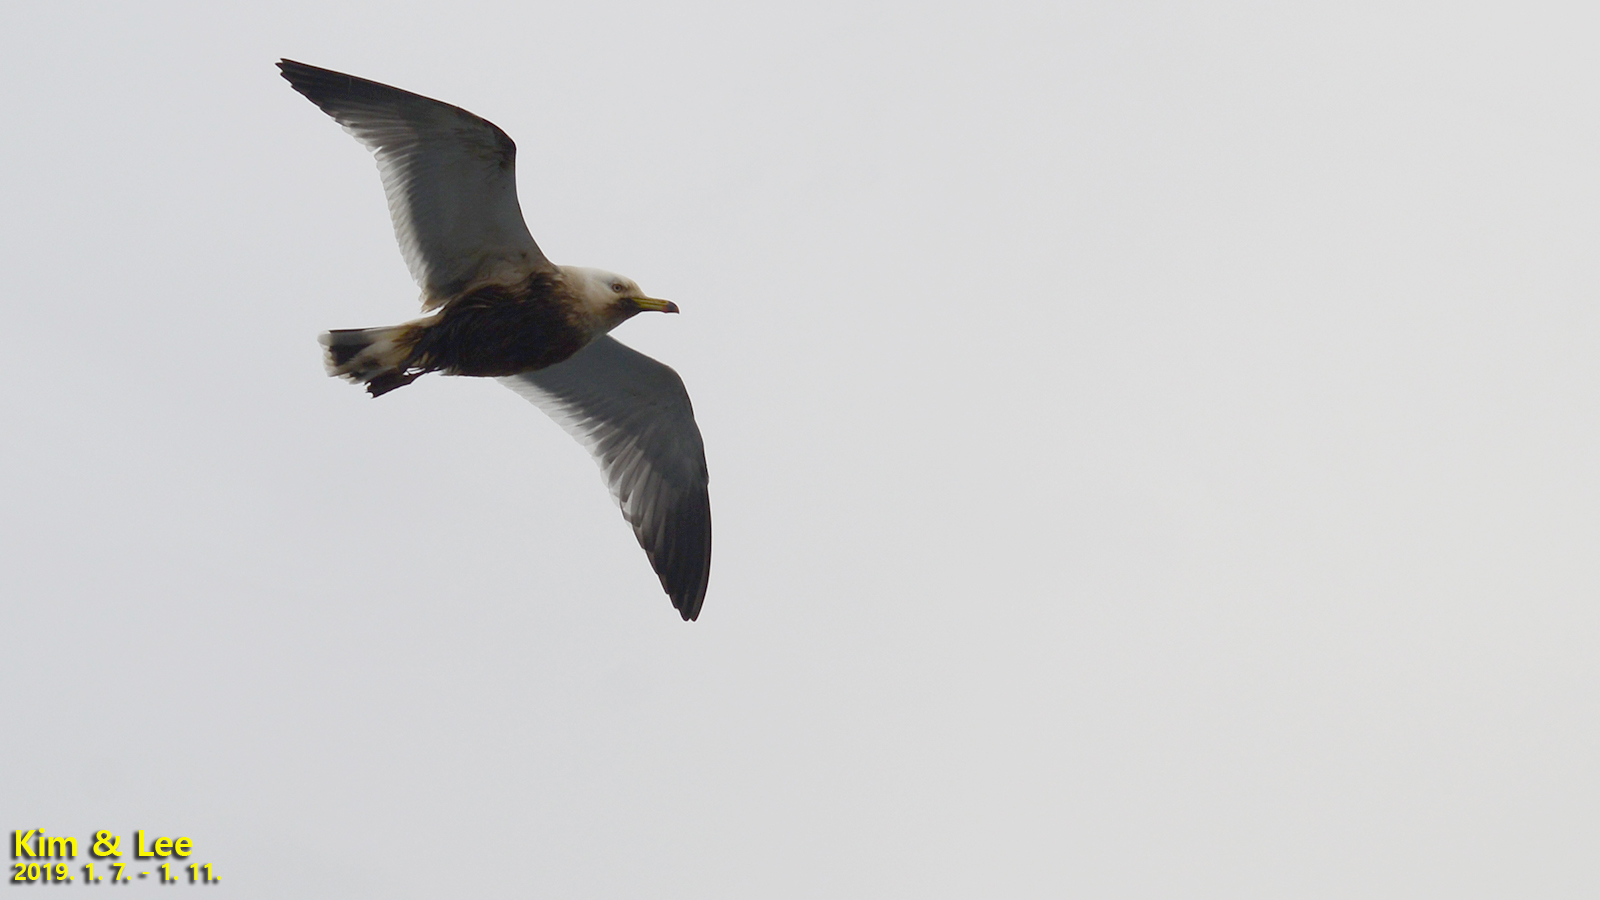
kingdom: Animalia
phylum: Chordata
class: Aves
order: Charadriiformes
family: Laridae
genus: Larus
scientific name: Larus crassirostris
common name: Black-tailed gull
